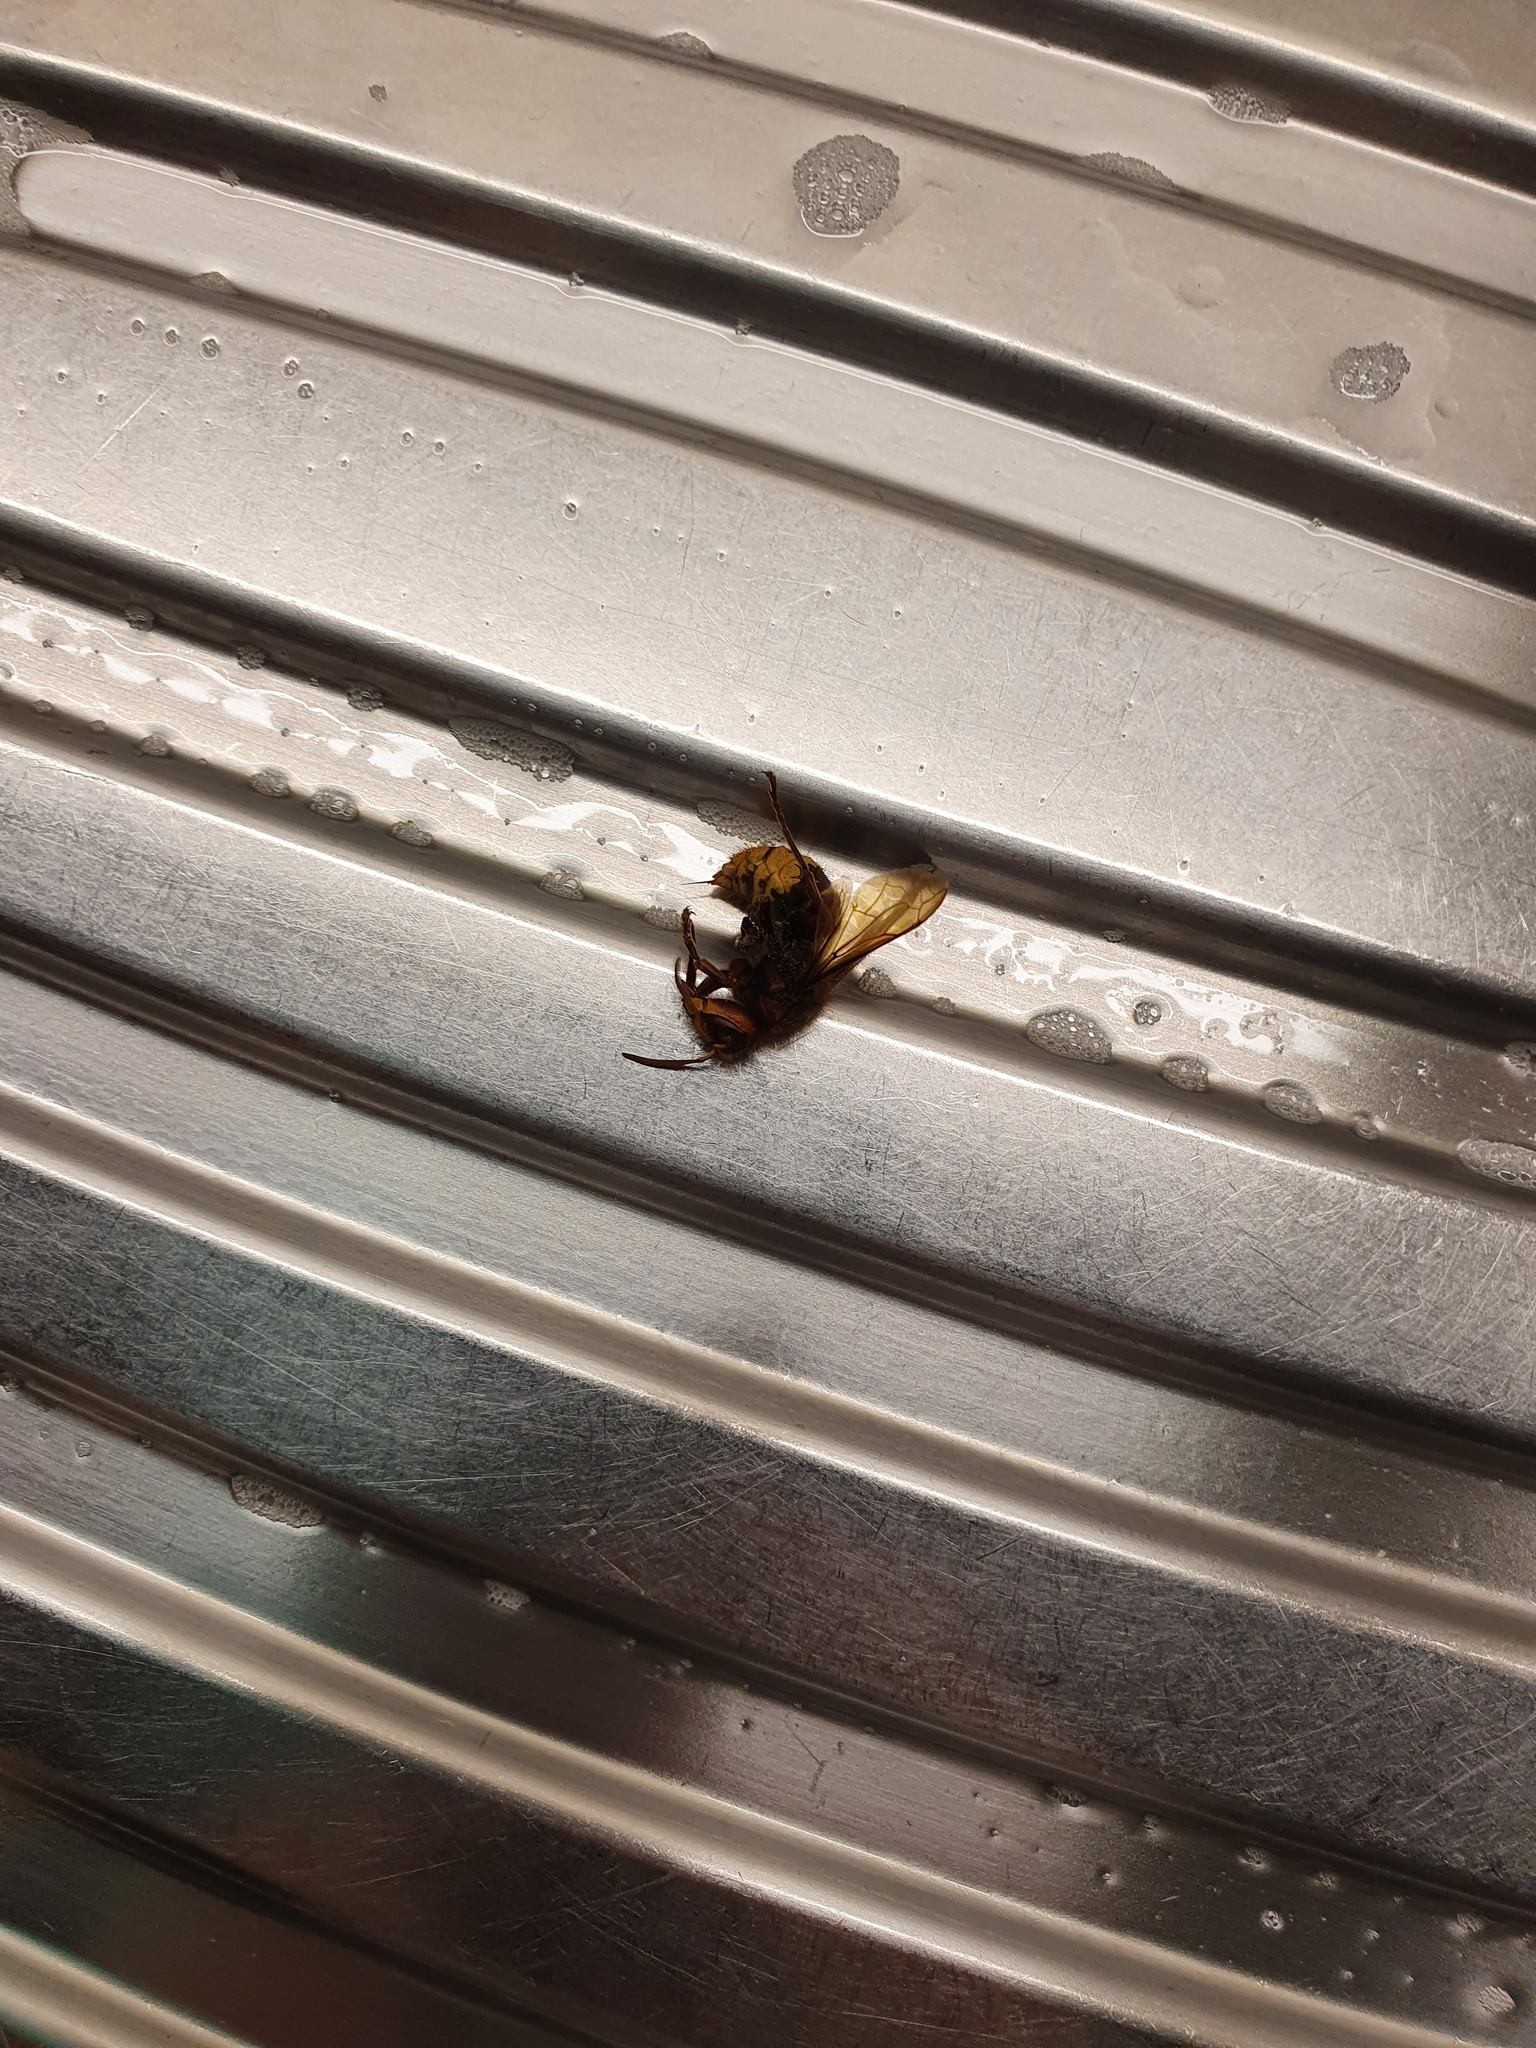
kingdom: Animalia
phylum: Arthropoda
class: Insecta
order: Hymenoptera
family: Vespidae
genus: Vespa
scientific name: Vespa crabro
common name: Hornet
